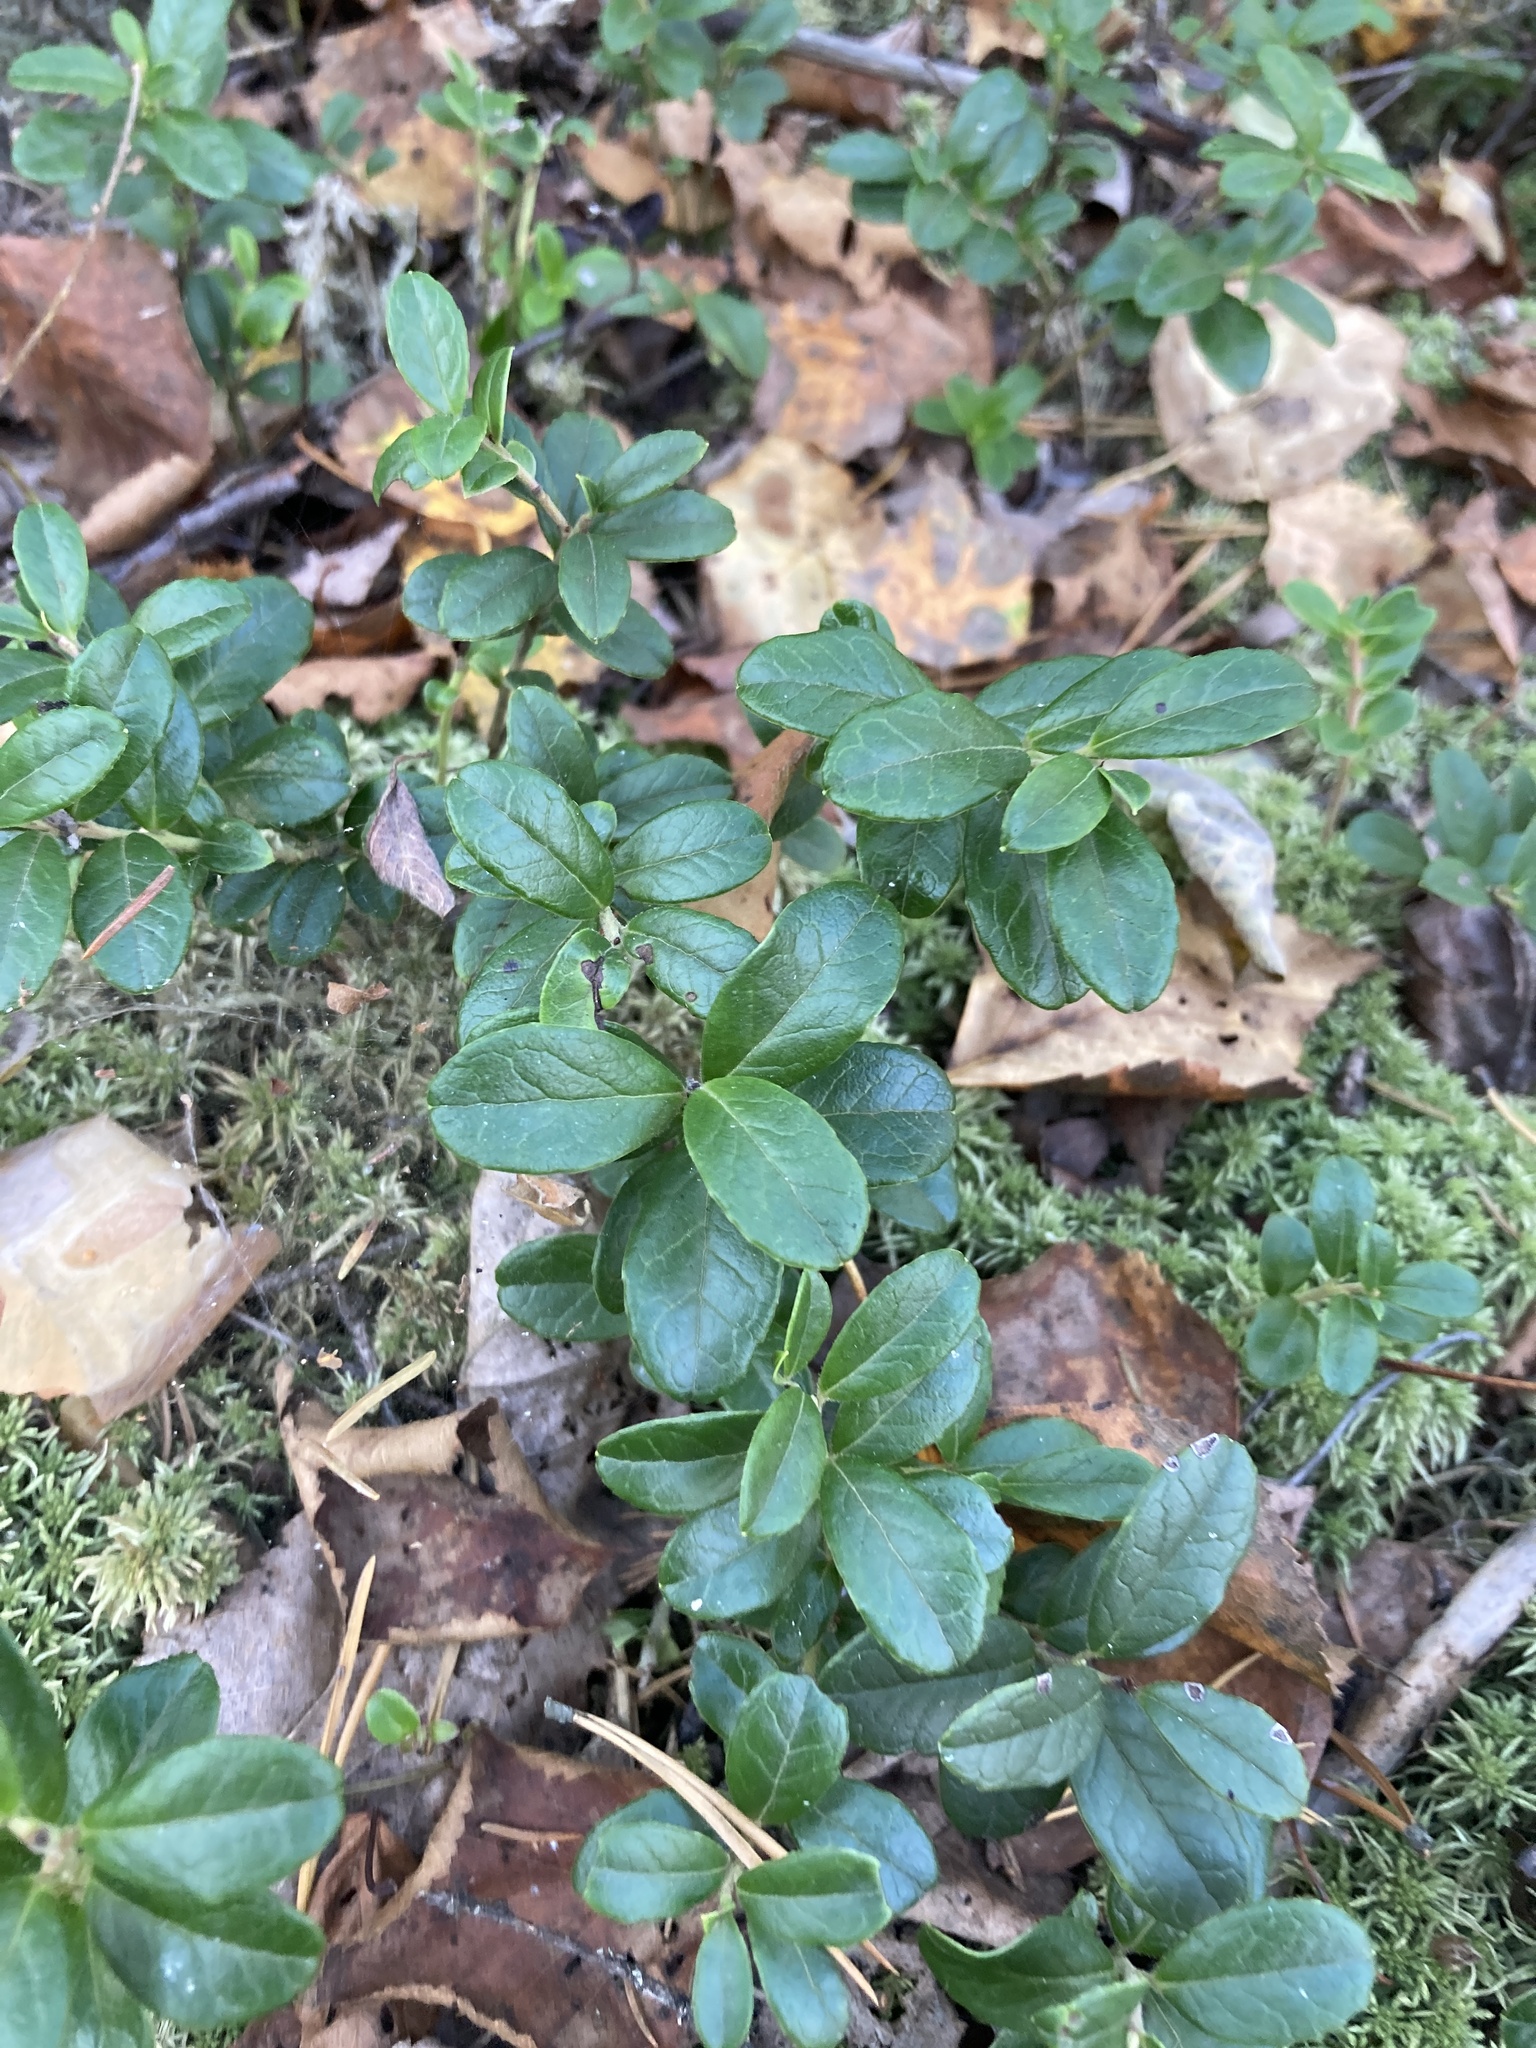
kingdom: Plantae
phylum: Tracheophyta
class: Magnoliopsida
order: Ericales
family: Ericaceae
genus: Vaccinium
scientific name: Vaccinium vitis-idaea
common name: Cowberry
